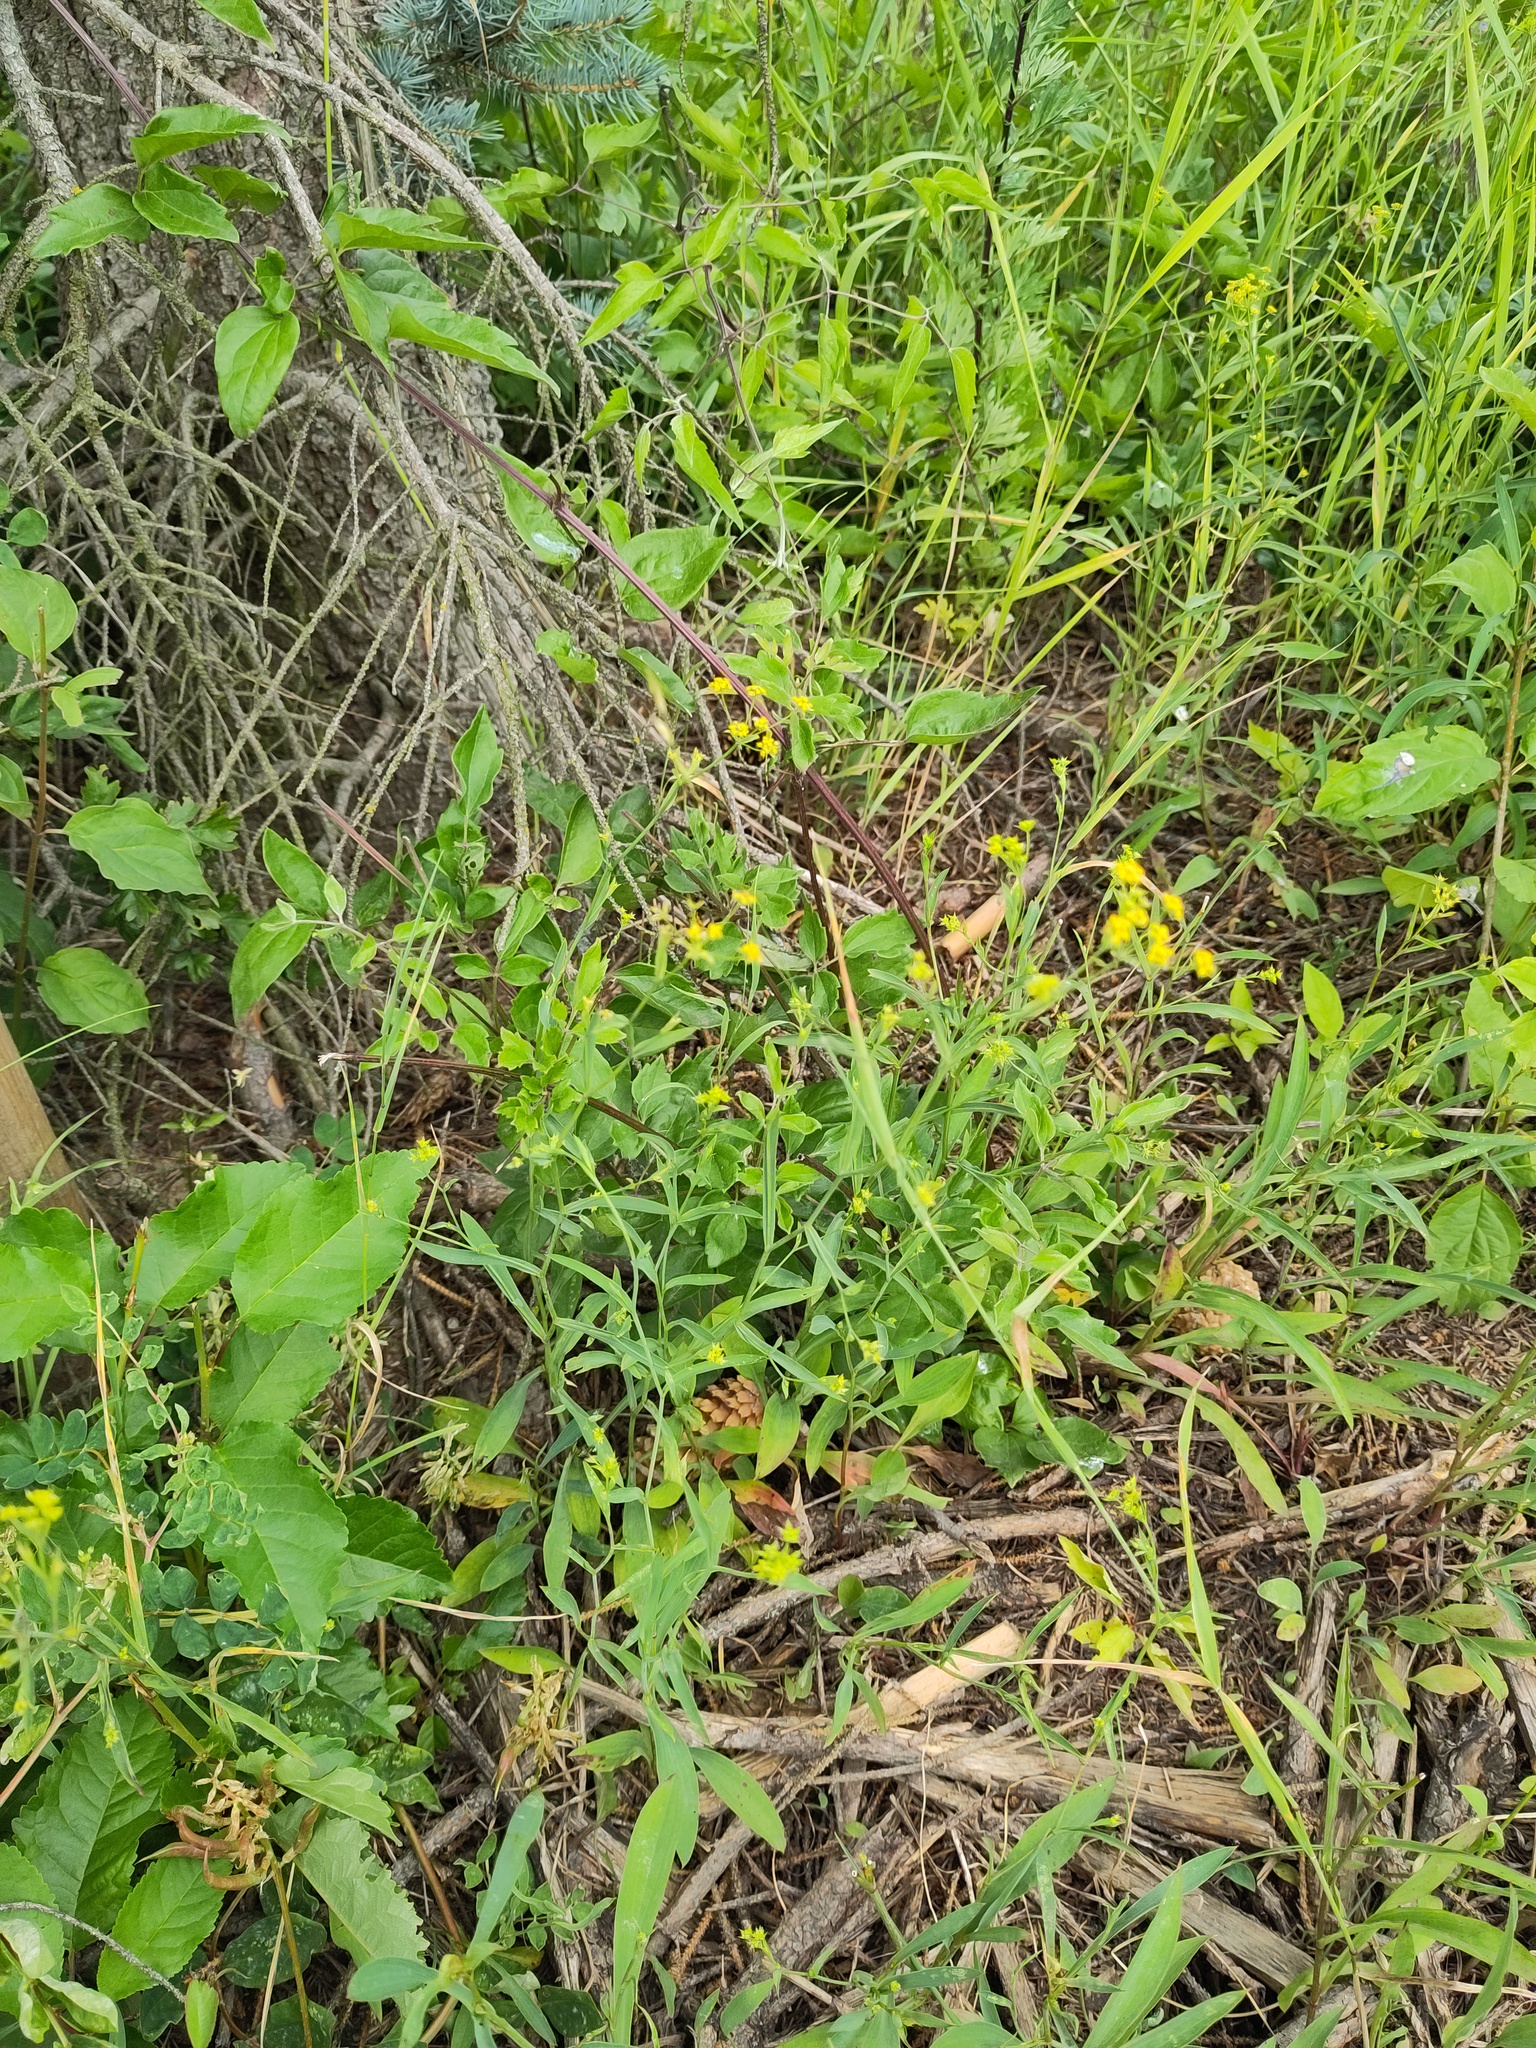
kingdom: Plantae
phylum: Tracheophyta
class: Magnoliopsida
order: Apiales
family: Apiaceae
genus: Bupleurum
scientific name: Bupleurum falcatum
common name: Sickle-leaved hare's-ear
